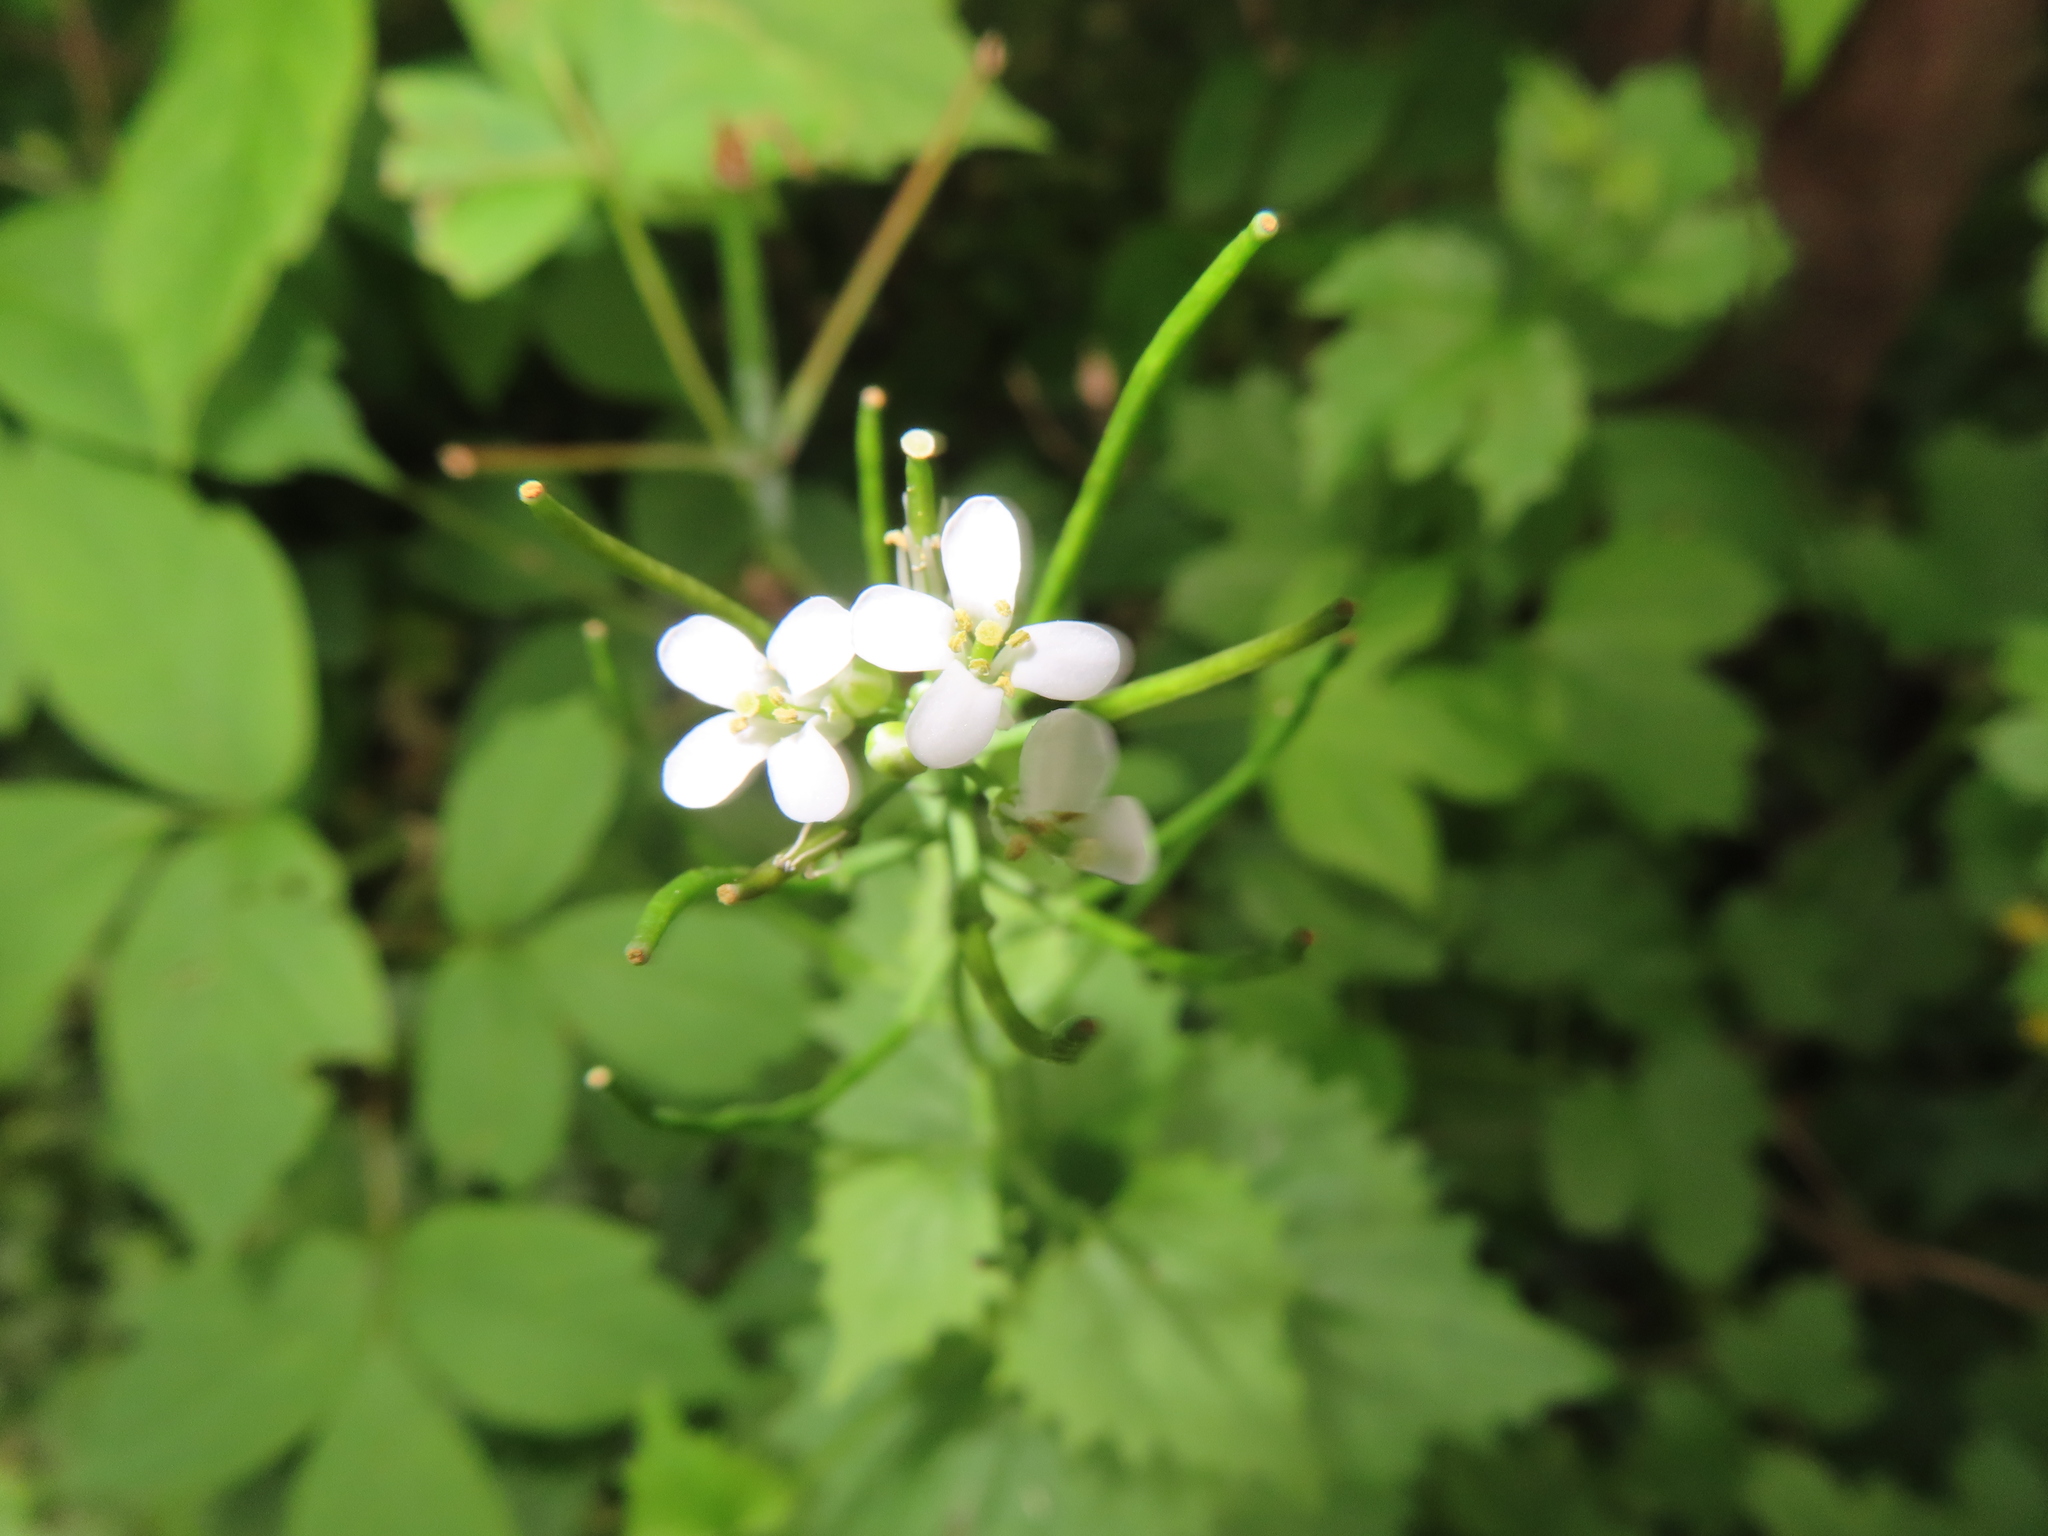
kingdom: Plantae
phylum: Tracheophyta
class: Magnoliopsida
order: Brassicales
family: Brassicaceae
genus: Alliaria
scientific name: Alliaria petiolata
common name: Garlic mustard
